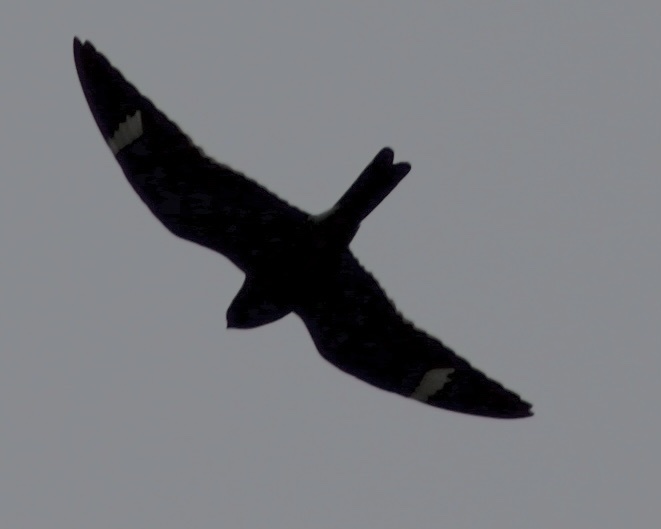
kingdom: Animalia
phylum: Chordata
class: Aves
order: Caprimulgiformes
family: Caprimulgidae
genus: Chordeiles
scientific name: Chordeiles minor
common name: Common nighthawk
